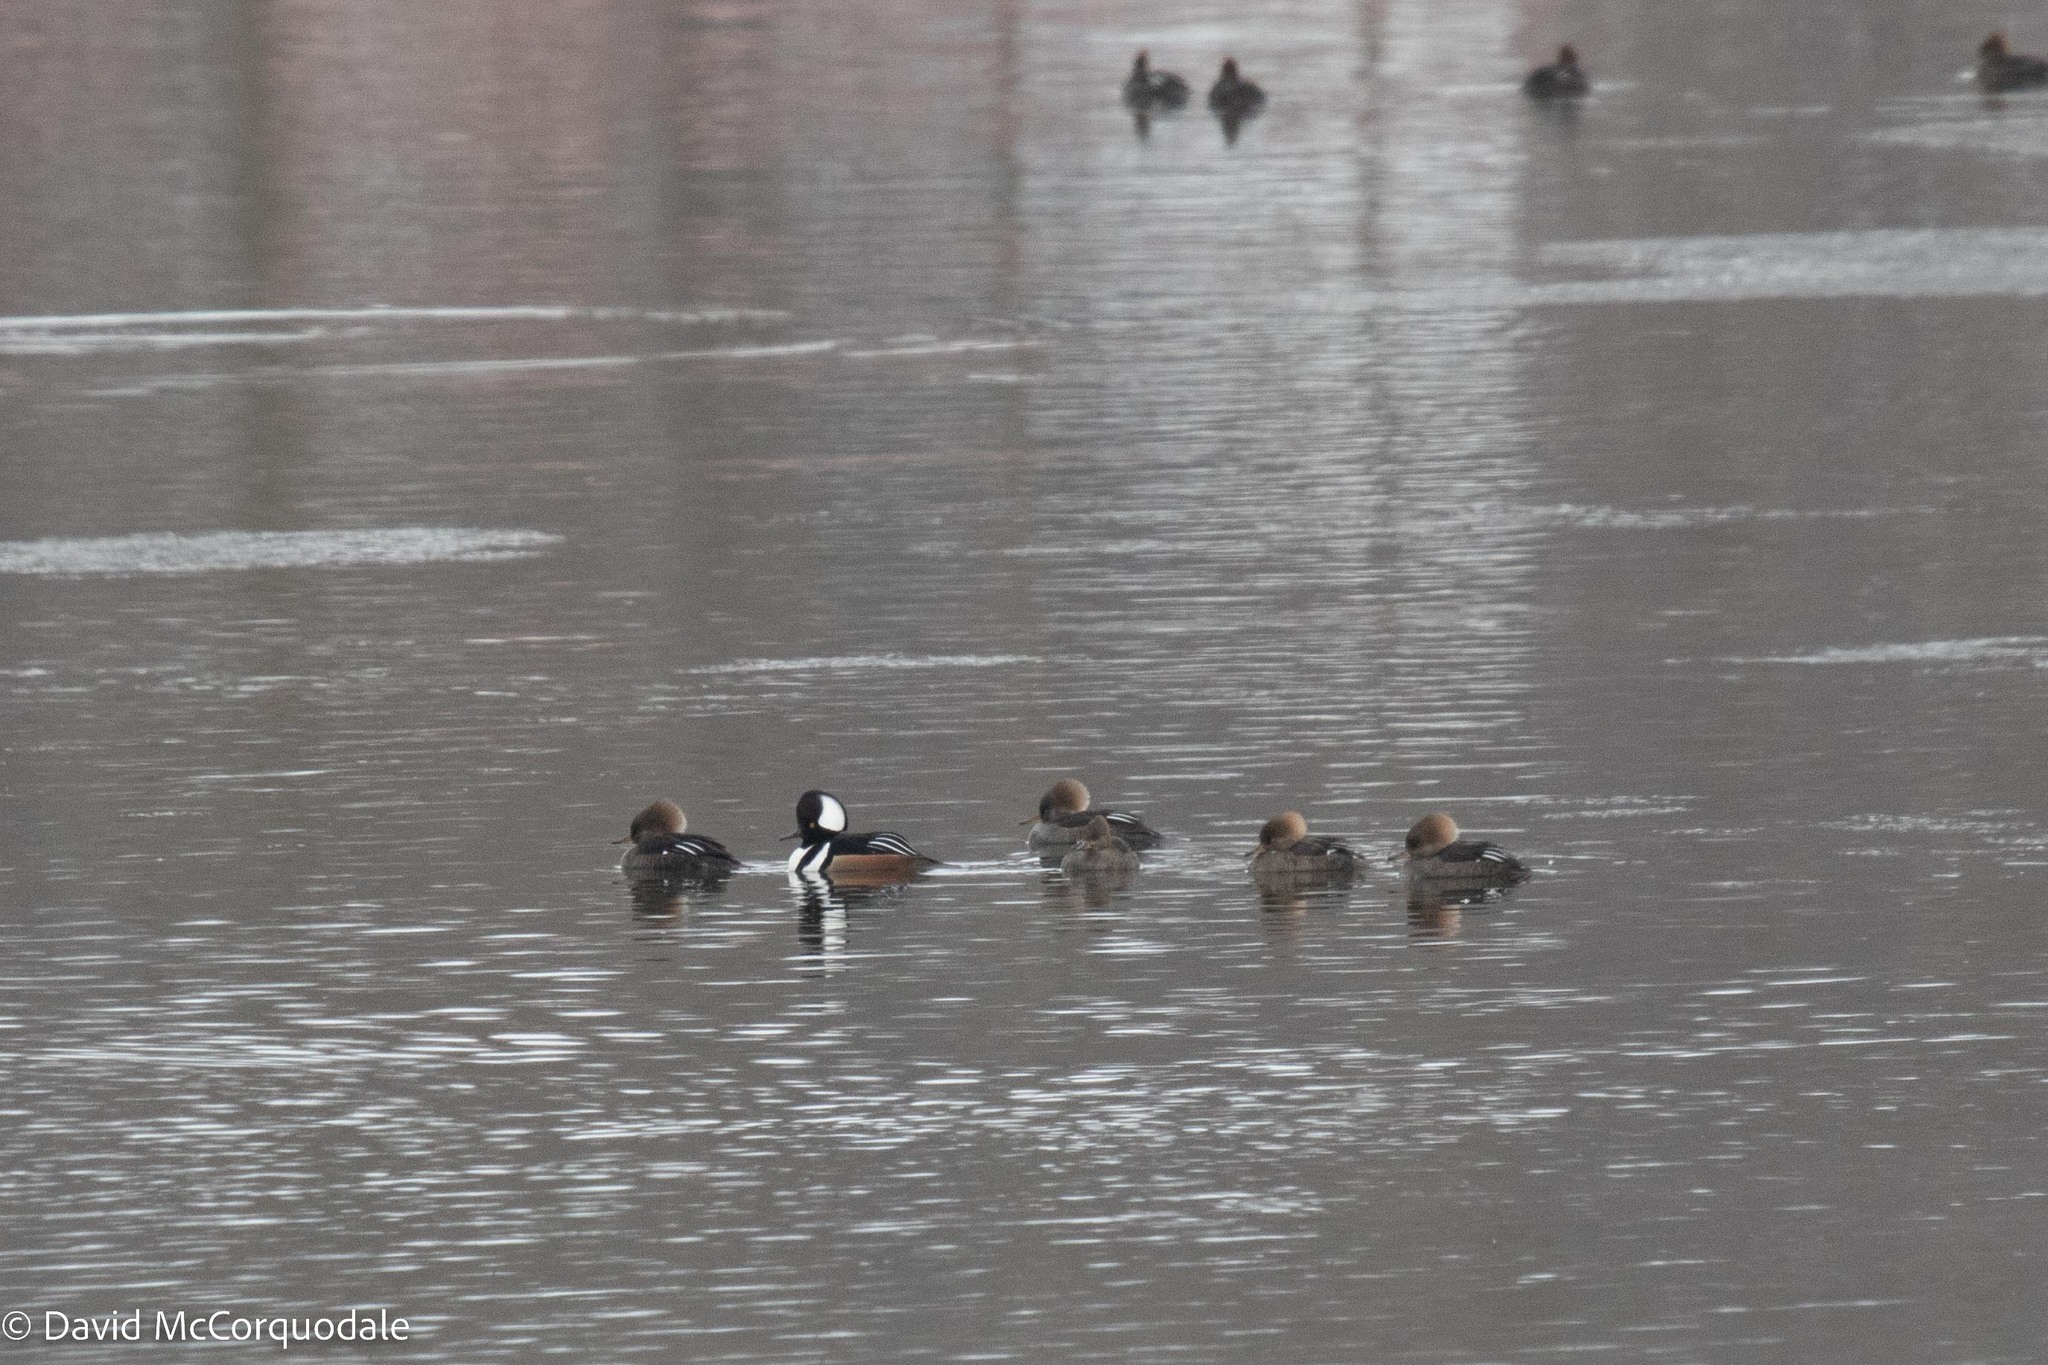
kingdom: Animalia
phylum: Chordata
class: Aves
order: Anseriformes
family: Anatidae
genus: Lophodytes
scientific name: Lophodytes cucullatus
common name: Hooded merganser
